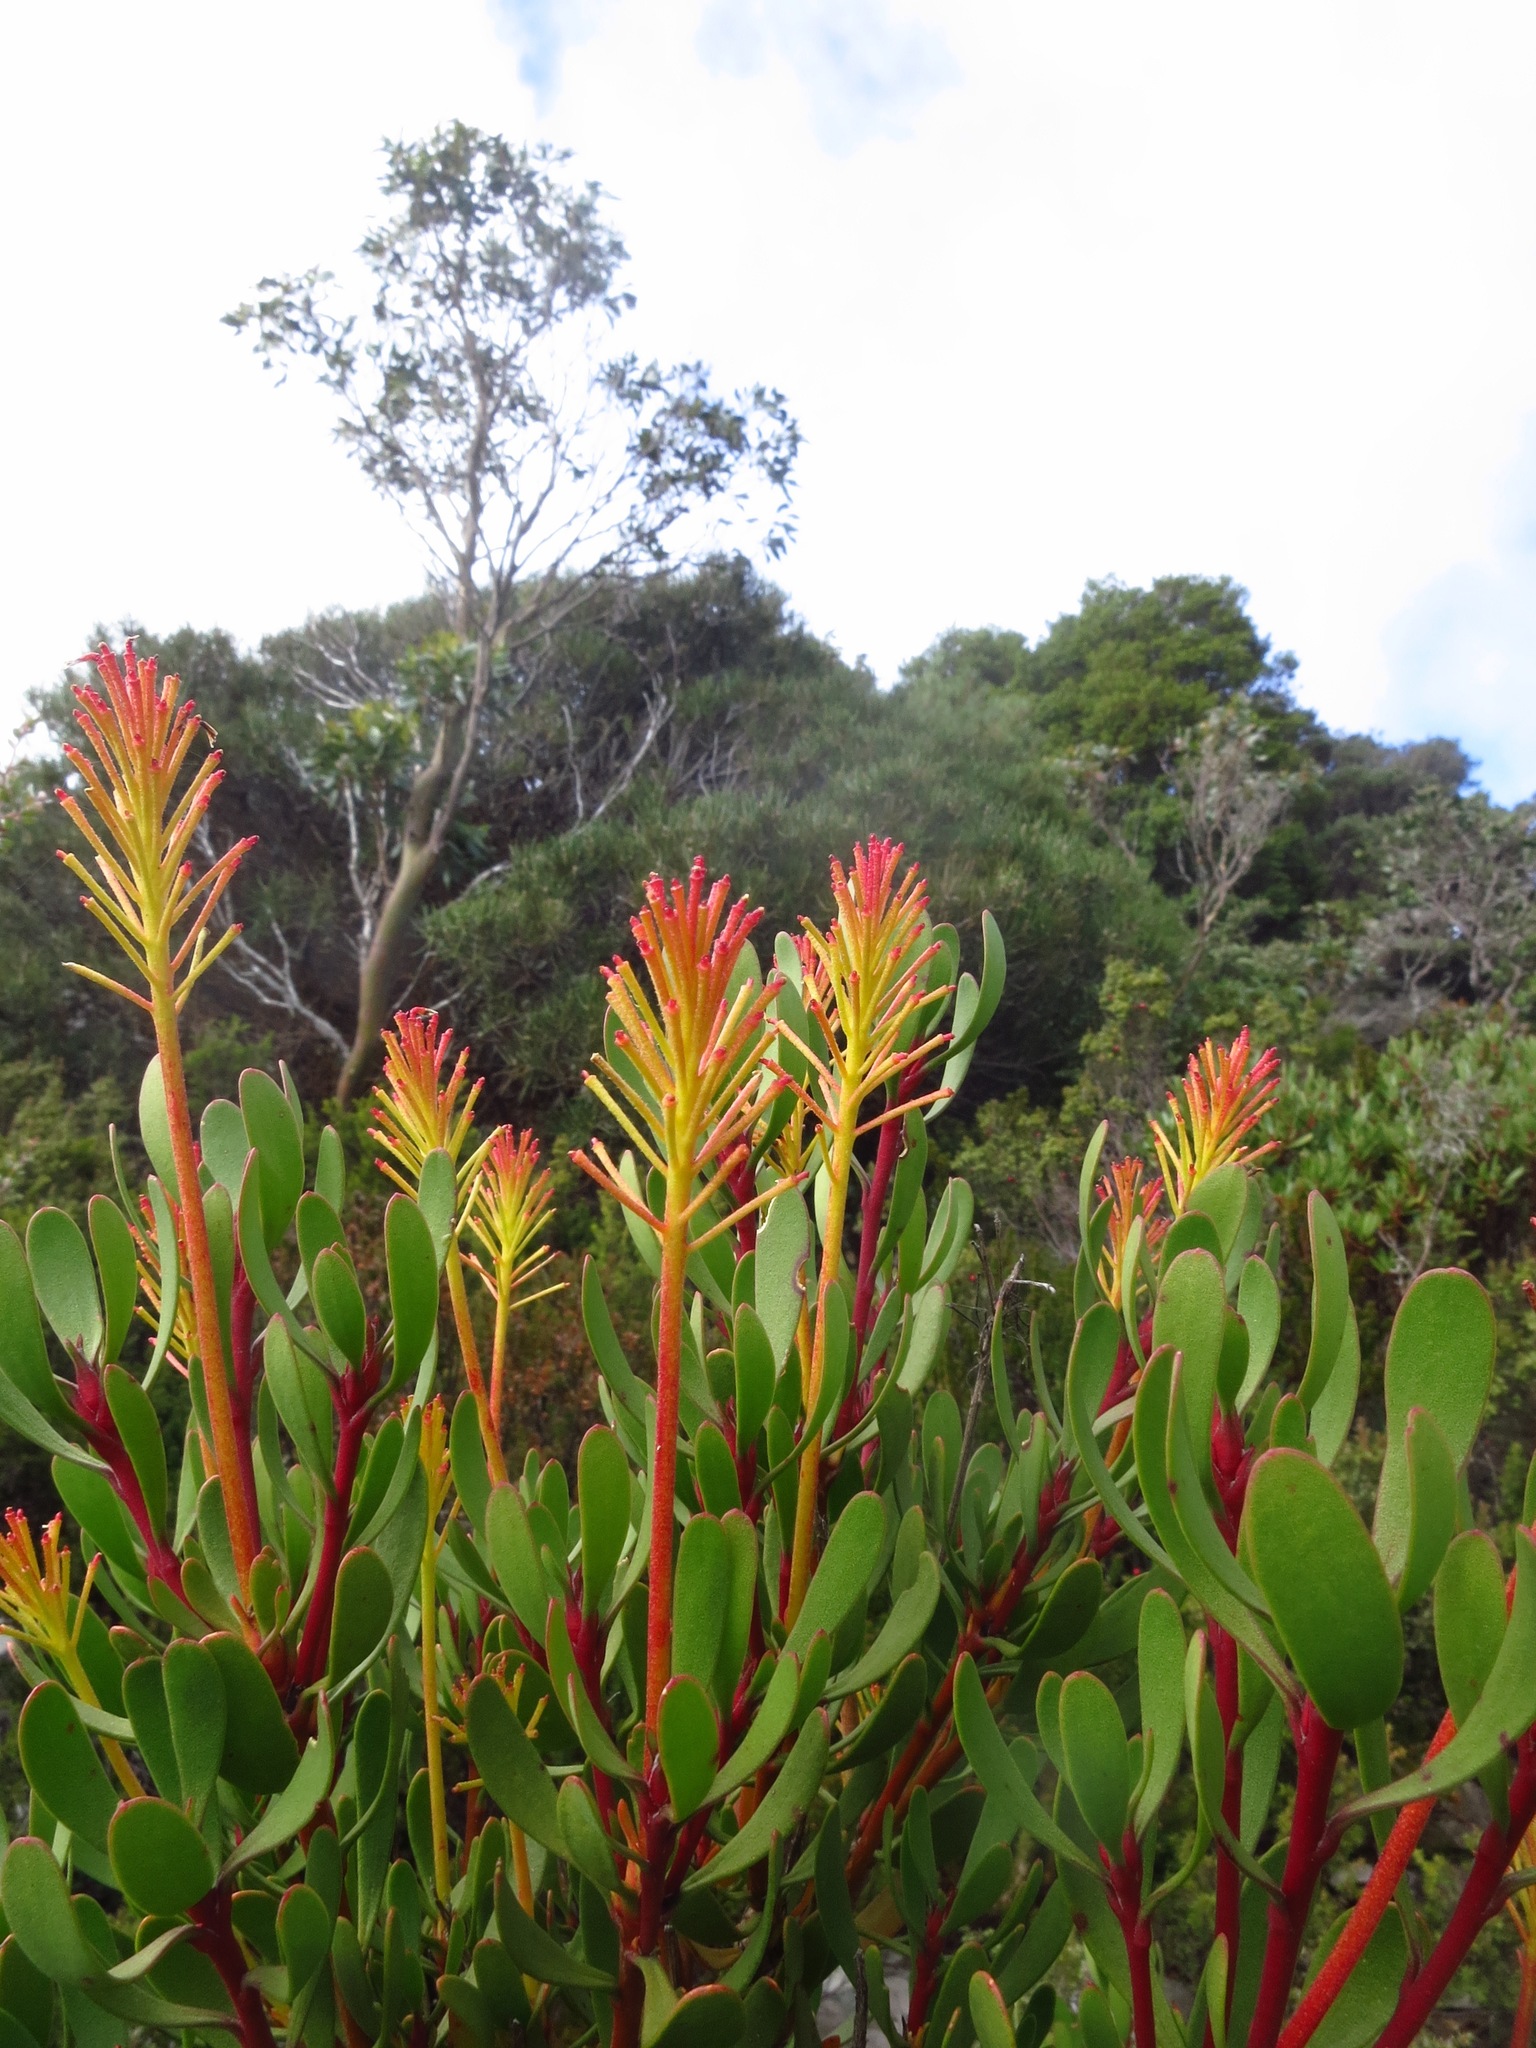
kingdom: Plantae
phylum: Tracheophyta
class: Magnoliopsida
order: Proteales
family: Proteaceae
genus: Bellendena
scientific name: Bellendena montana
